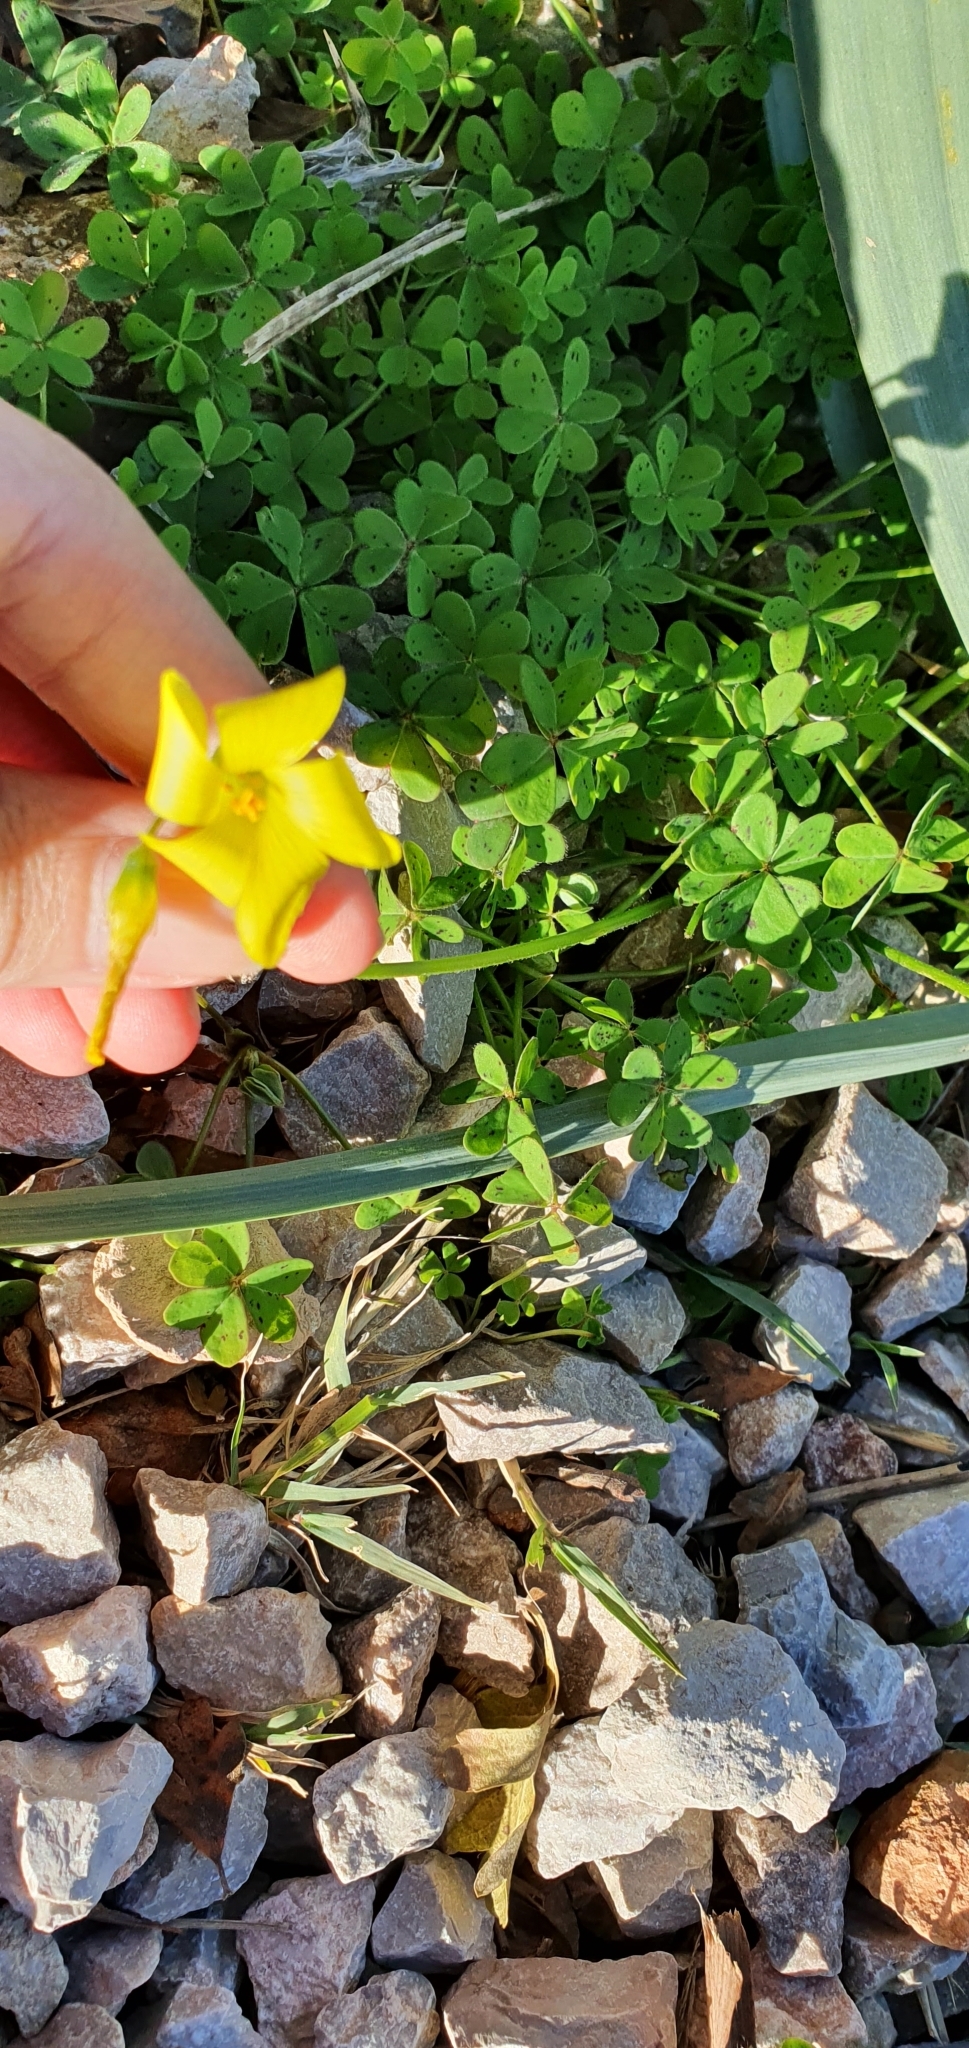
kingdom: Plantae
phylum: Tracheophyta
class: Magnoliopsida
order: Oxalidales
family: Oxalidaceae
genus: Oxalis
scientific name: Oxalis pes-caprae
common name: Bermuda-buttercup
